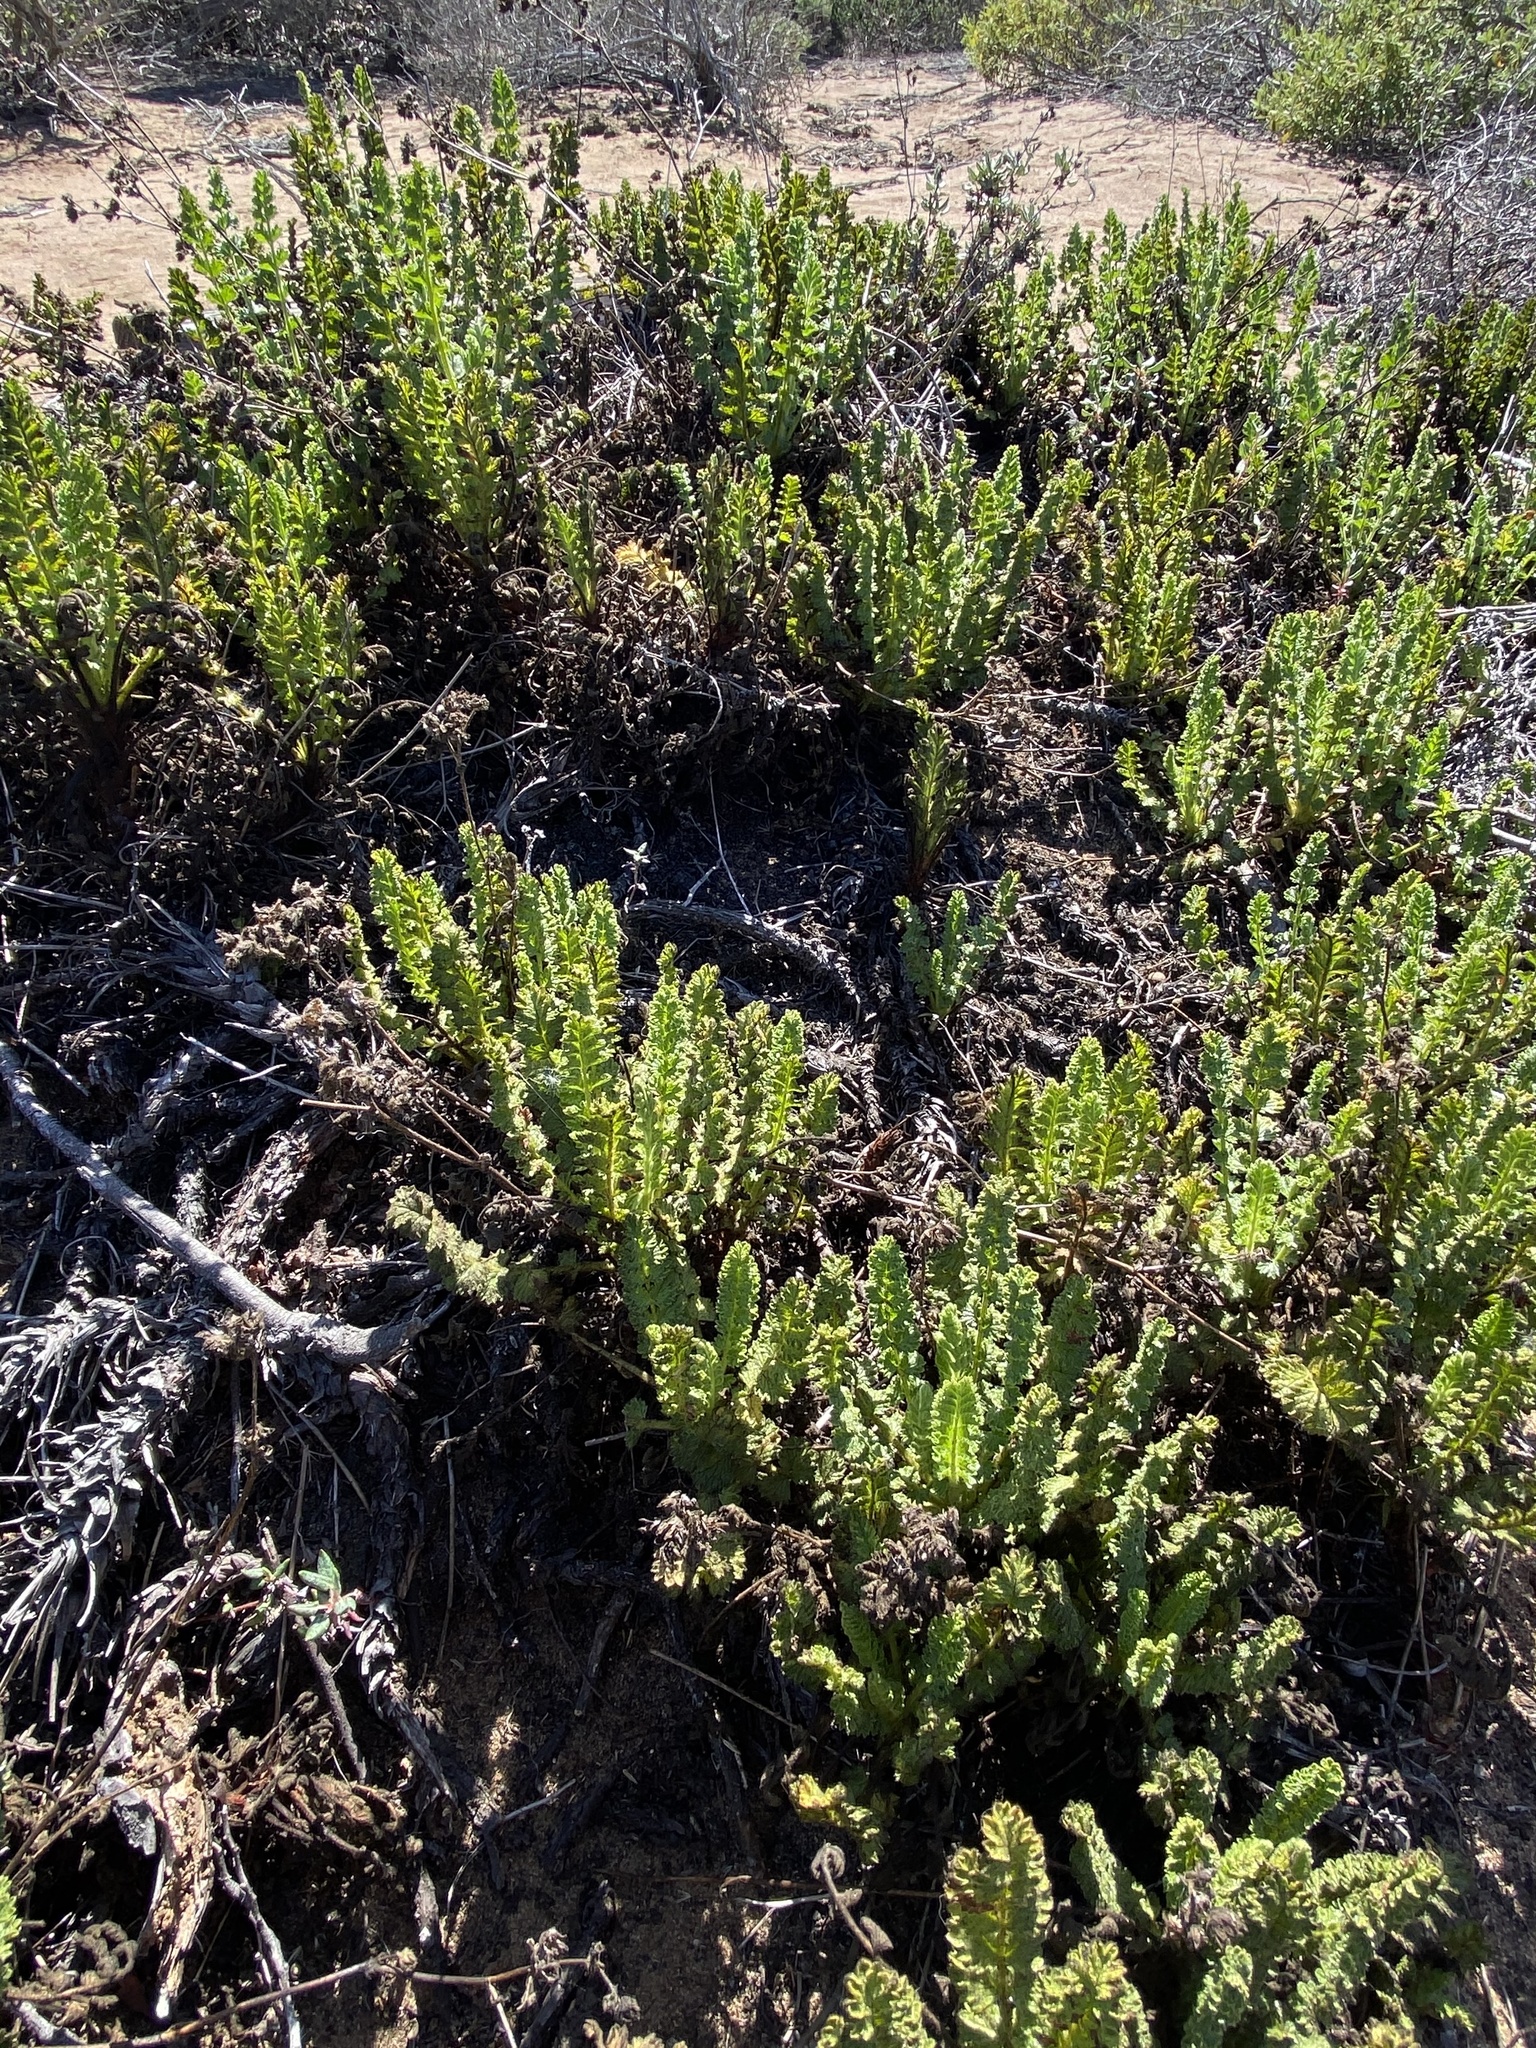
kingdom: Plantae
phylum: Tracheophyta
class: Magnoliopsida
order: Rosales
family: Rosaceae
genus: Potentilla
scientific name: Potentilla
